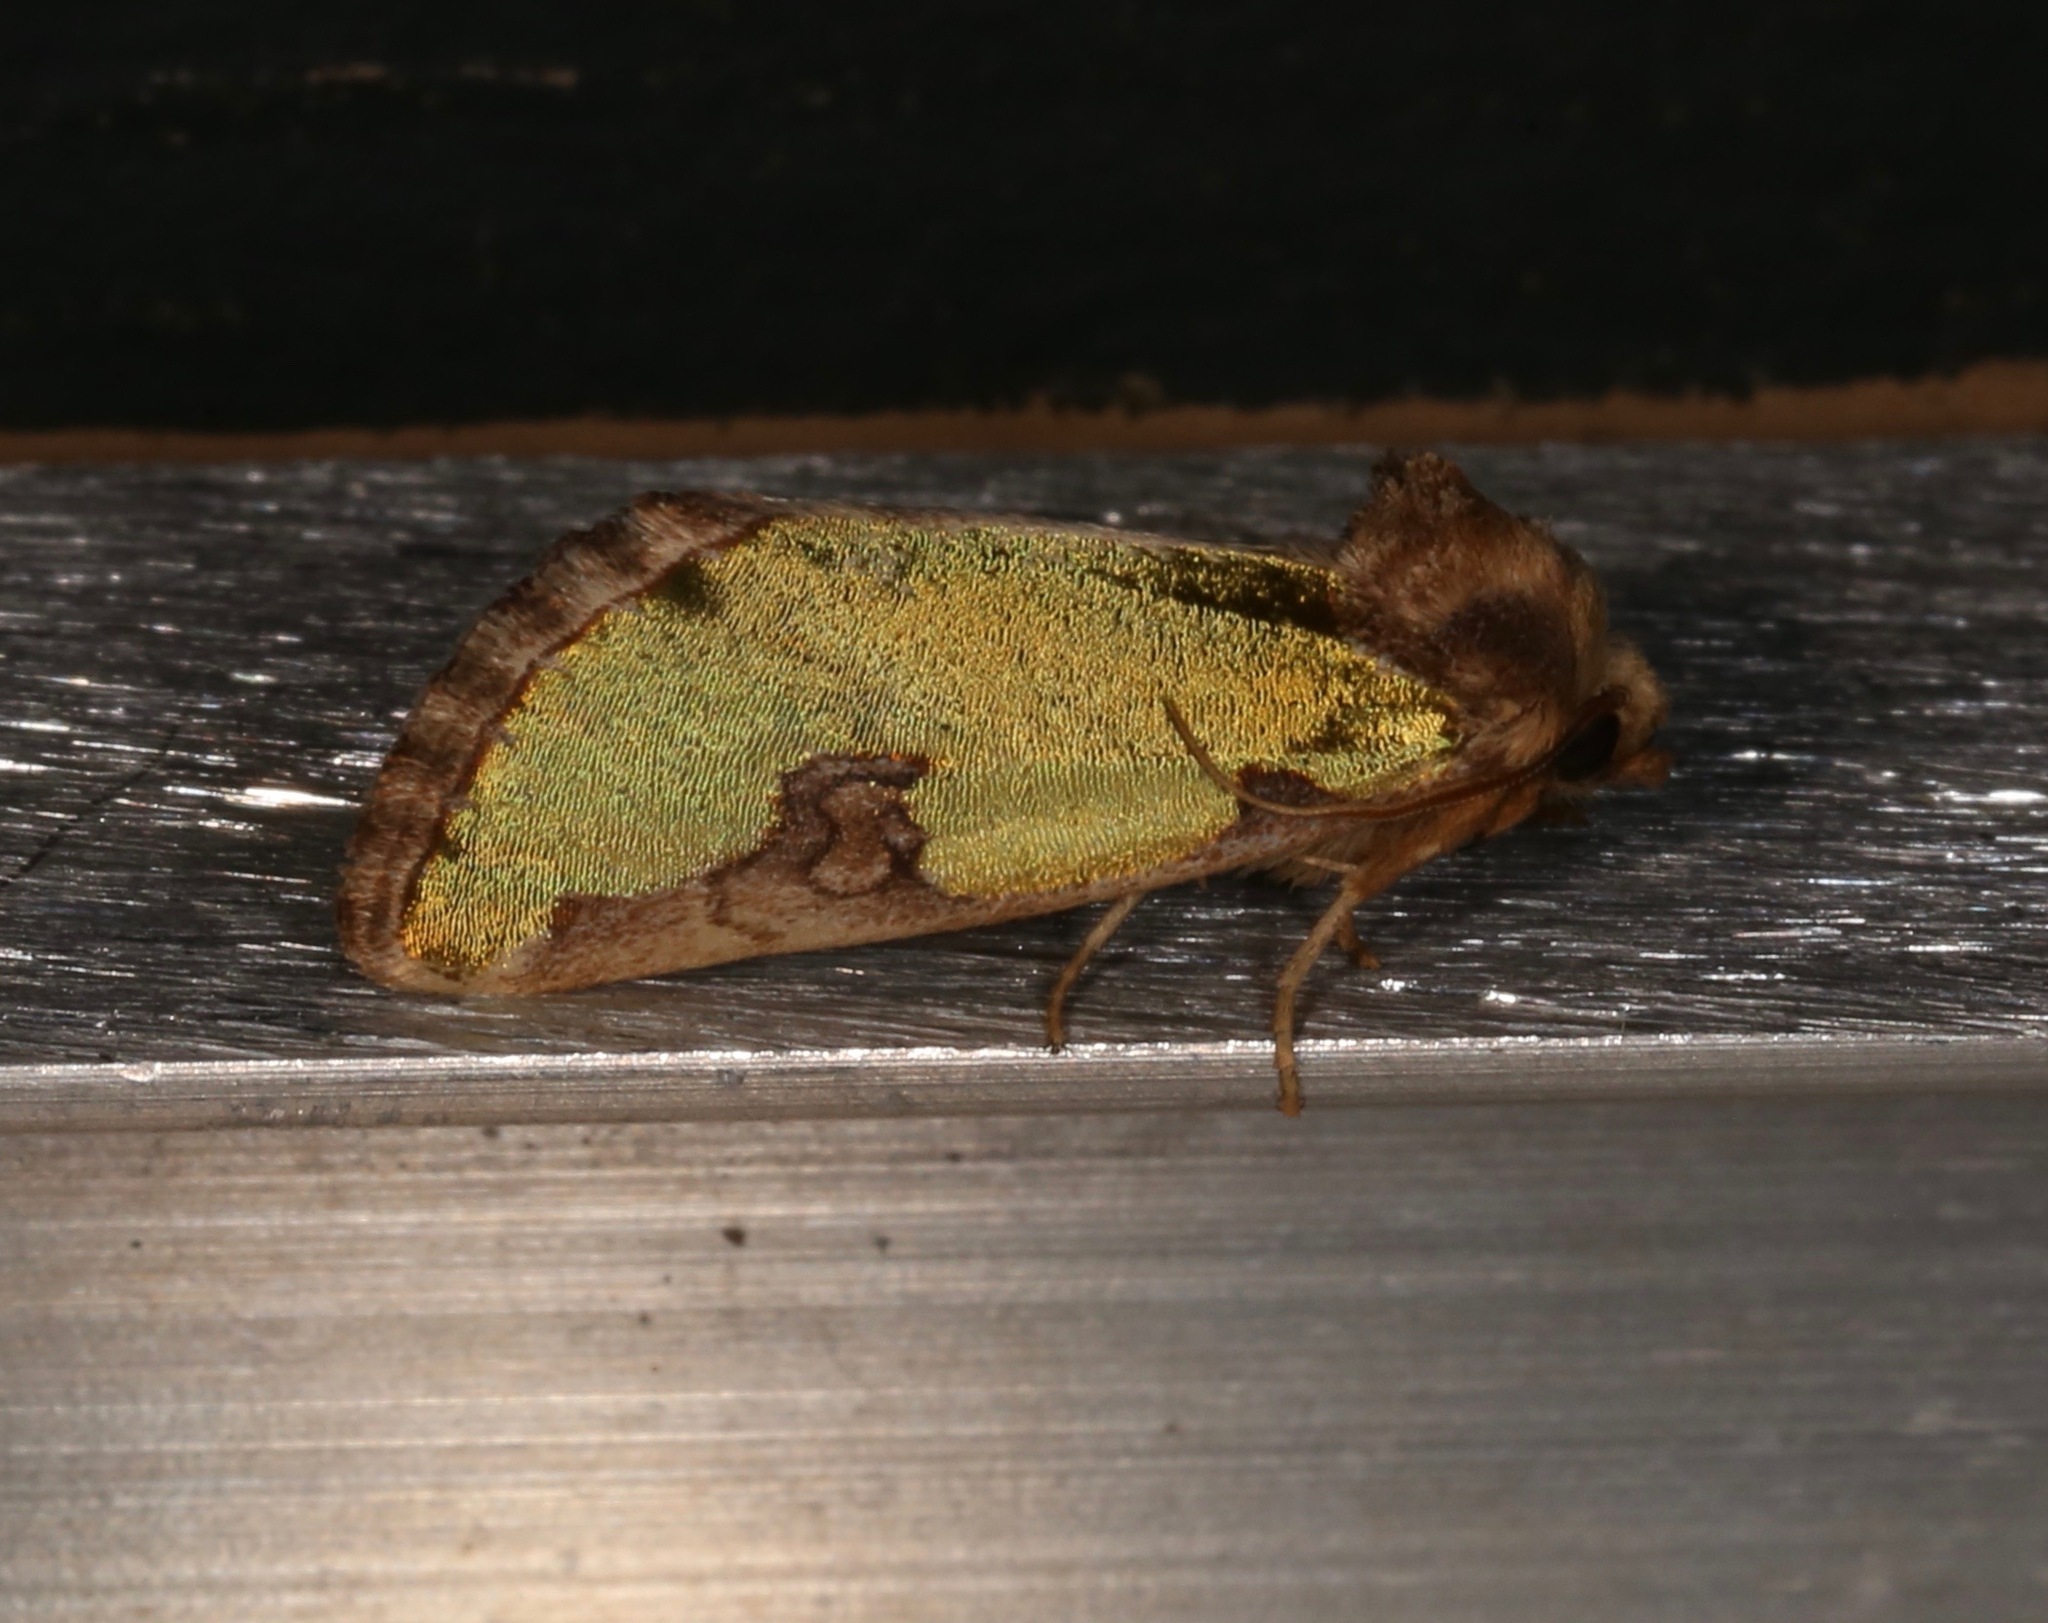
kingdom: Animalia
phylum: Arthropoda
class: Insecta
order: Lepidoptera
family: Noctuidae
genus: Chalcopasta
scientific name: Chalcopasta territans
